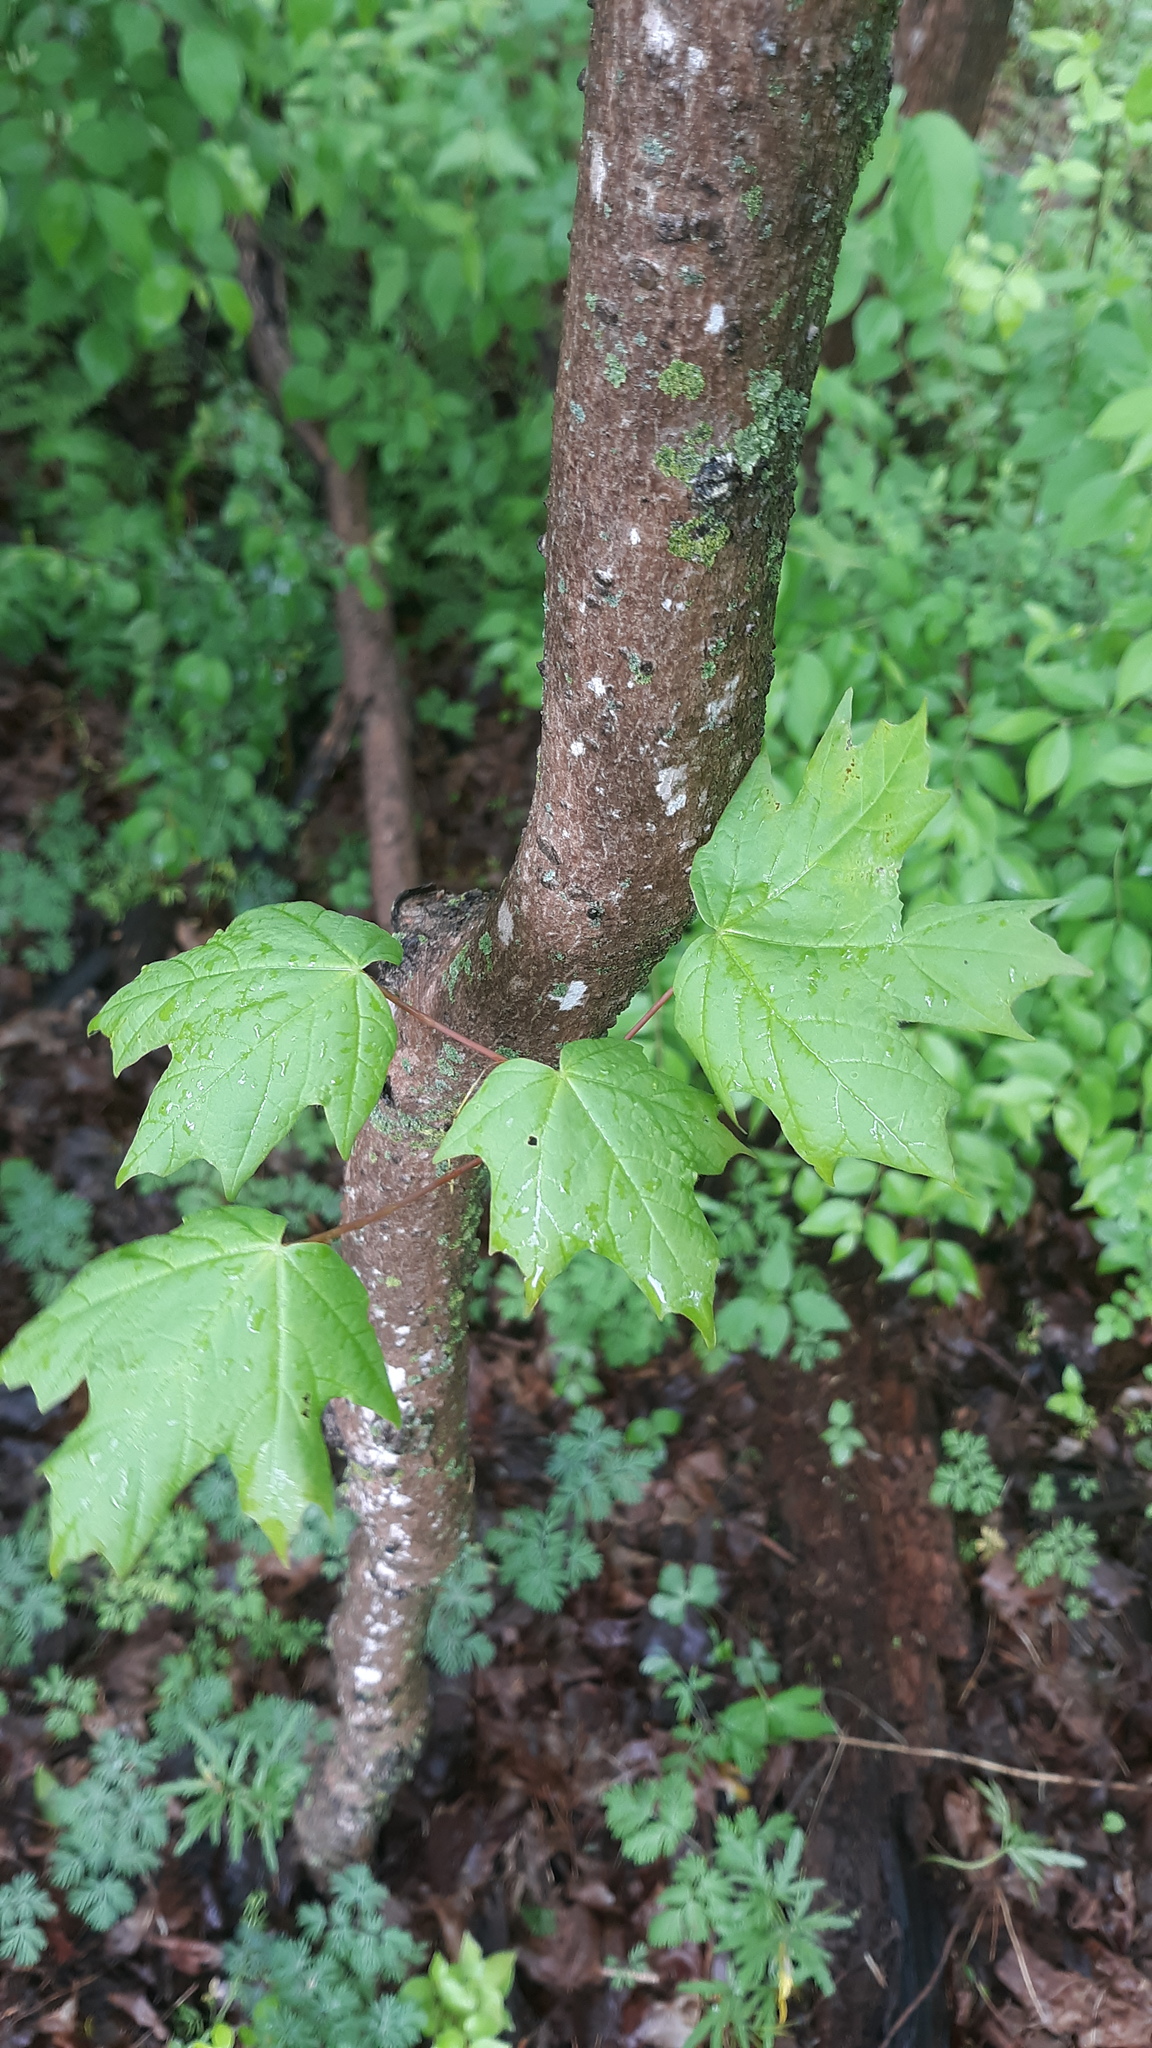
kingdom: Plantae
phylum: Tracheophyta
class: Magnoliopsida
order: Sapindales
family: Sapindaceae
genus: Acer
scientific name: Acer saccharum
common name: Sugar maple
